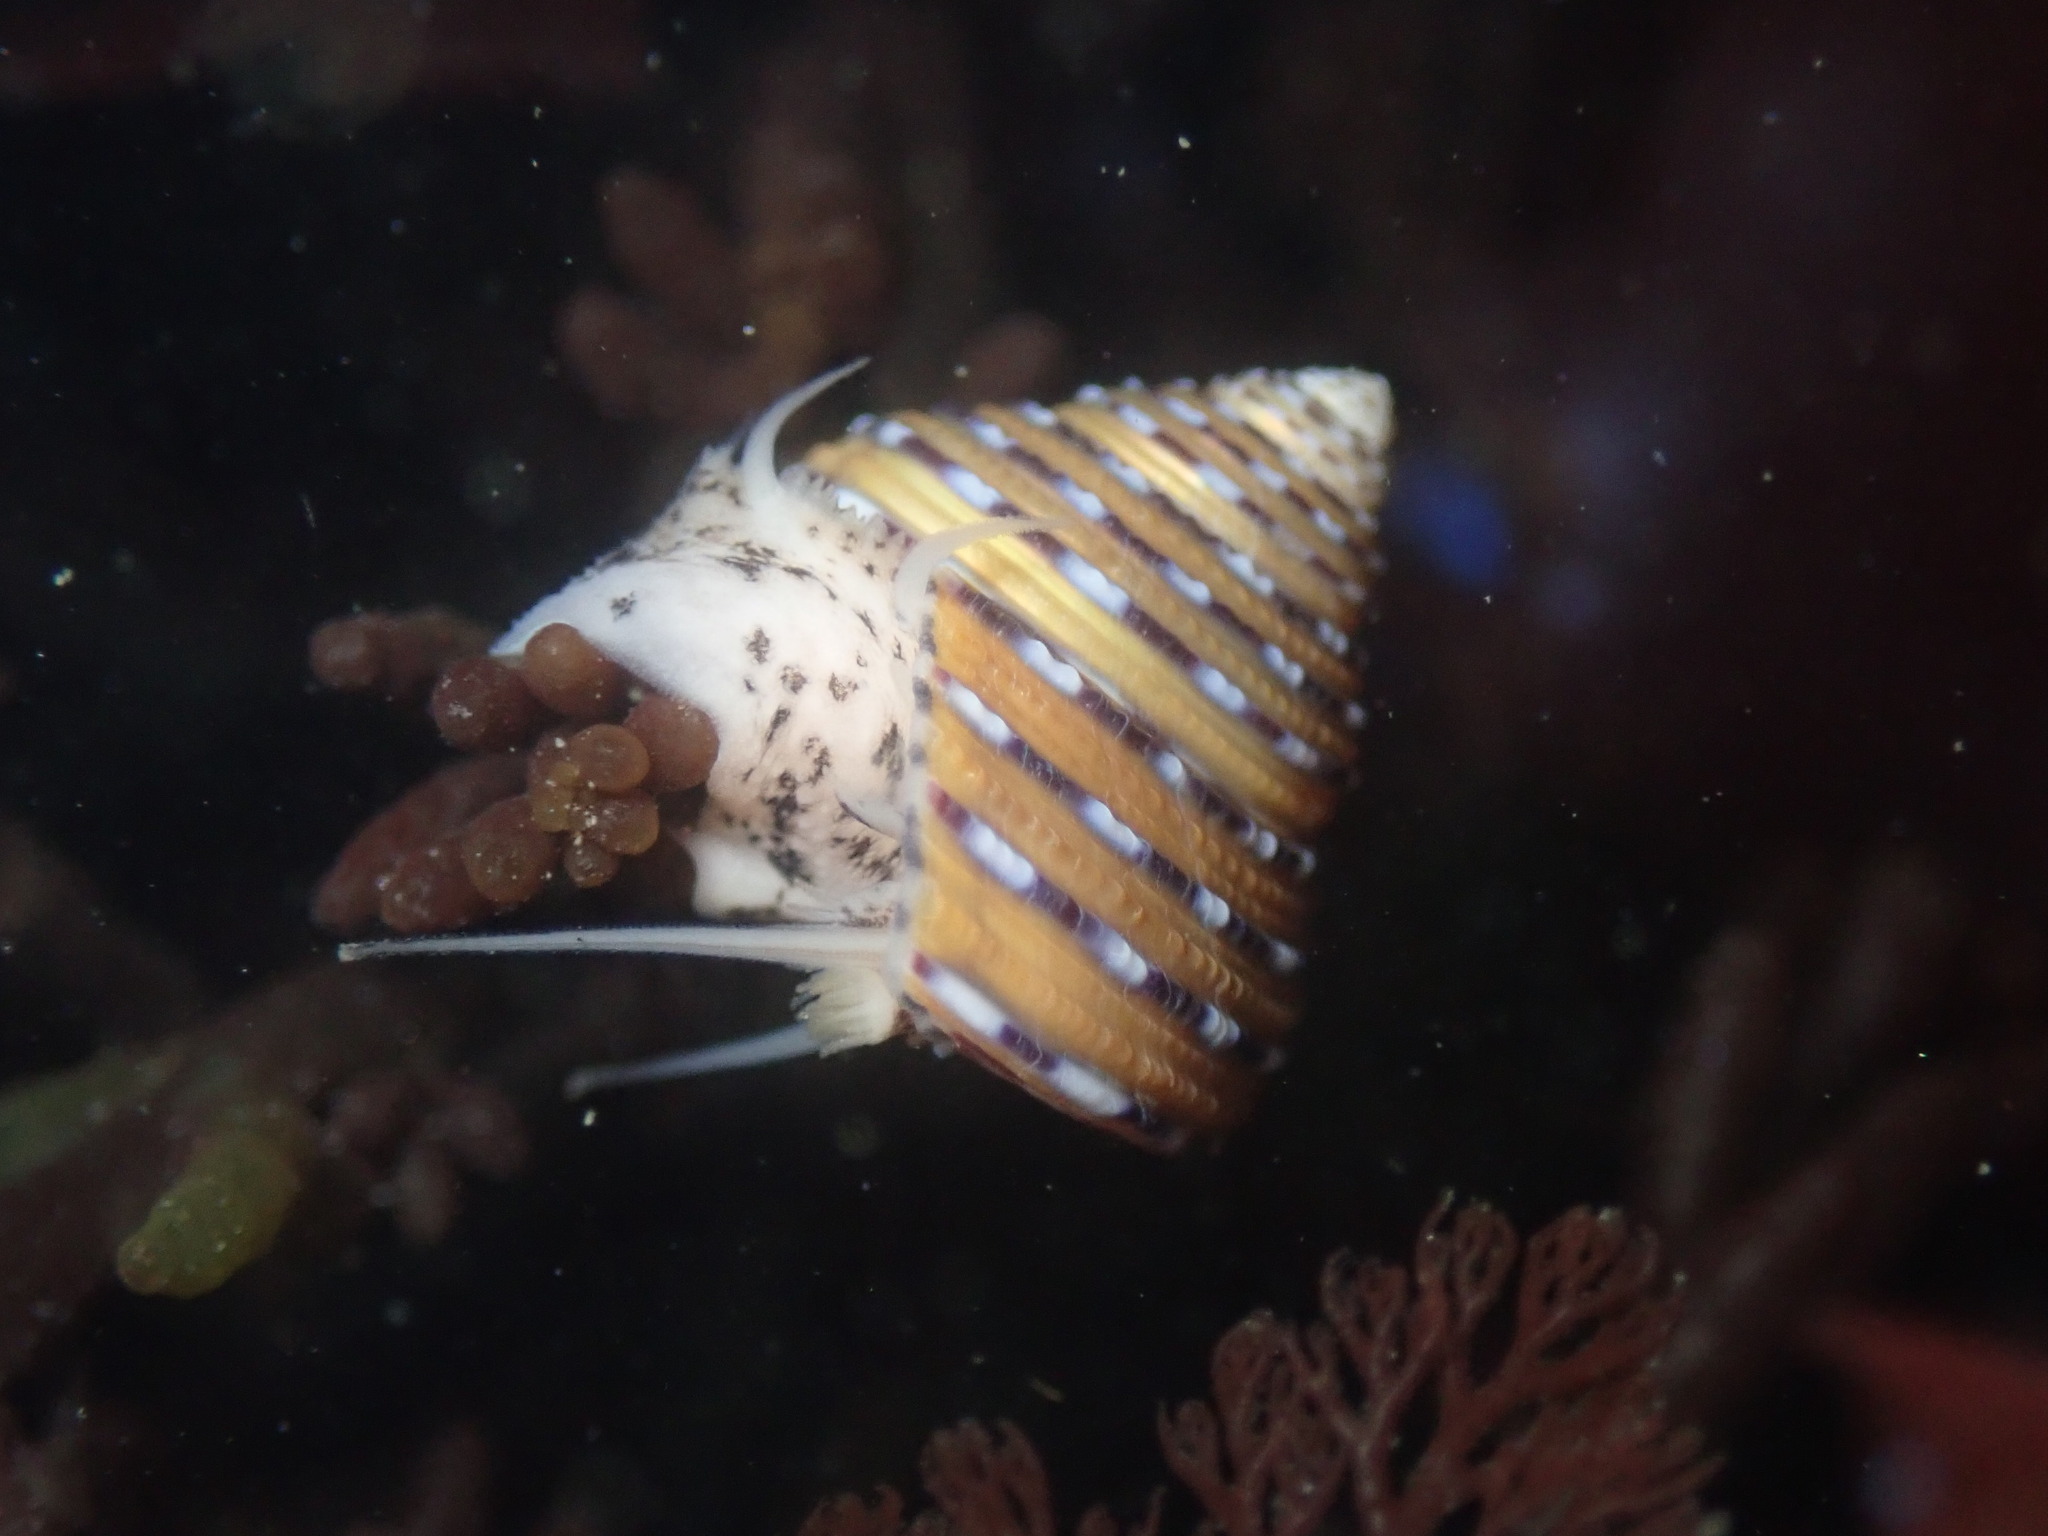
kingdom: Animalia
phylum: Mollusca
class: Gastropoda
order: Trochida
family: Calliostomatidae
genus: Calliostoma
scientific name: Calliostoma tricolor
